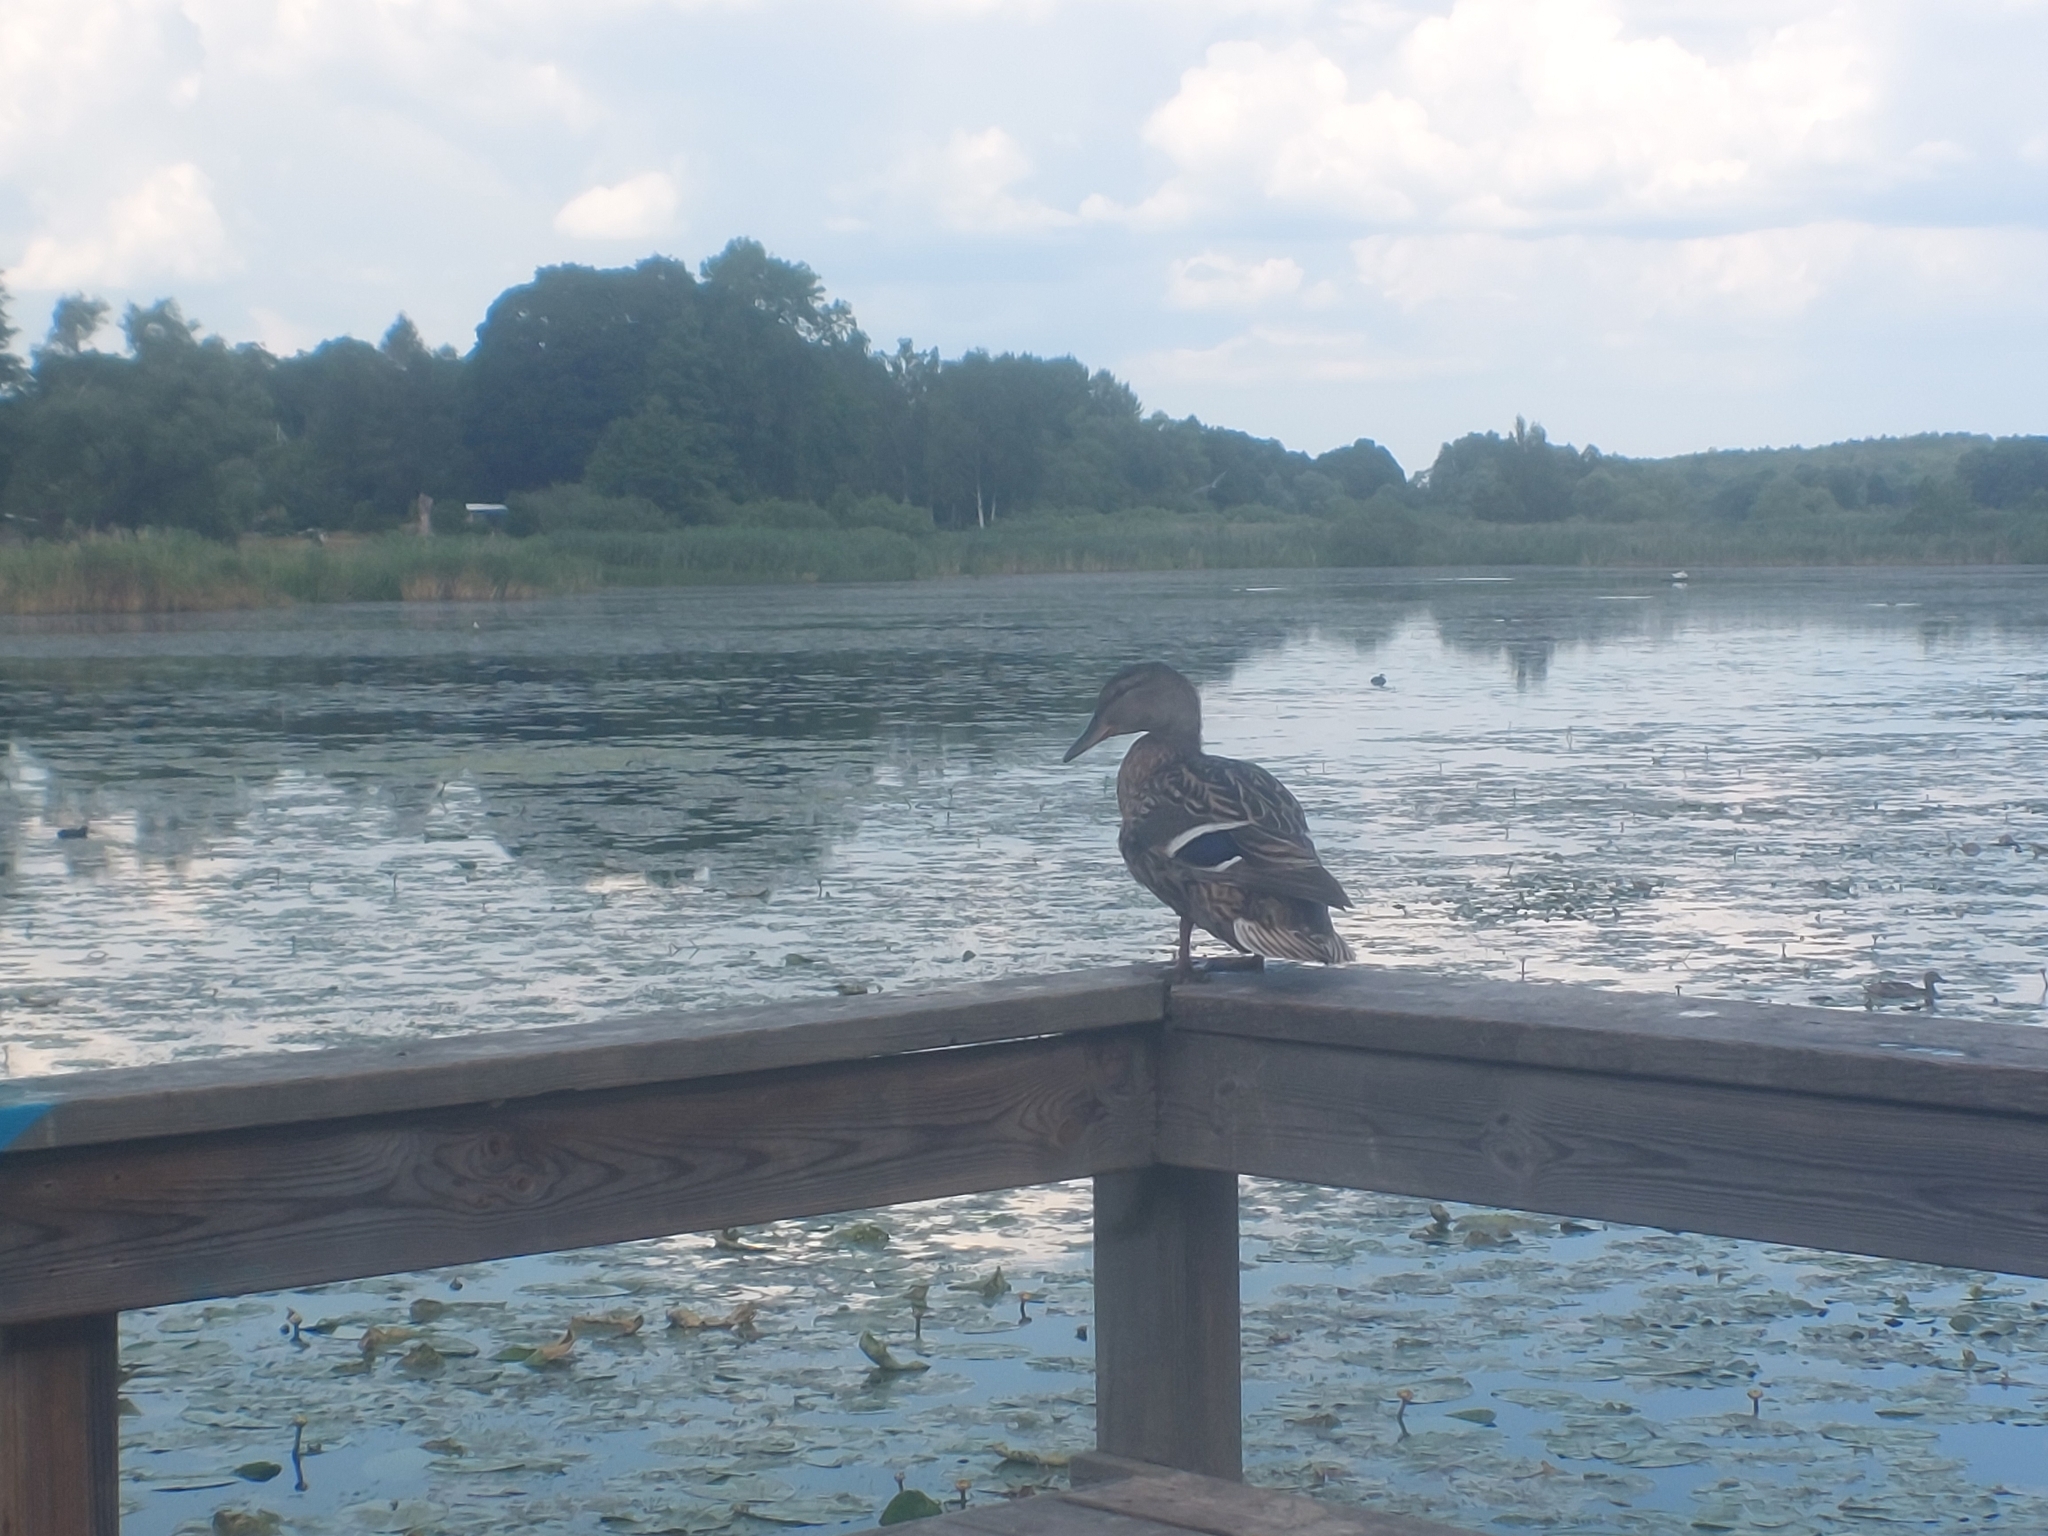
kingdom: Animalia
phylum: Chordata
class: Aves
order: Anseriformes
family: Anatidae
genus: Anas
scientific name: Anas platyrhynchos
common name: Mallard
